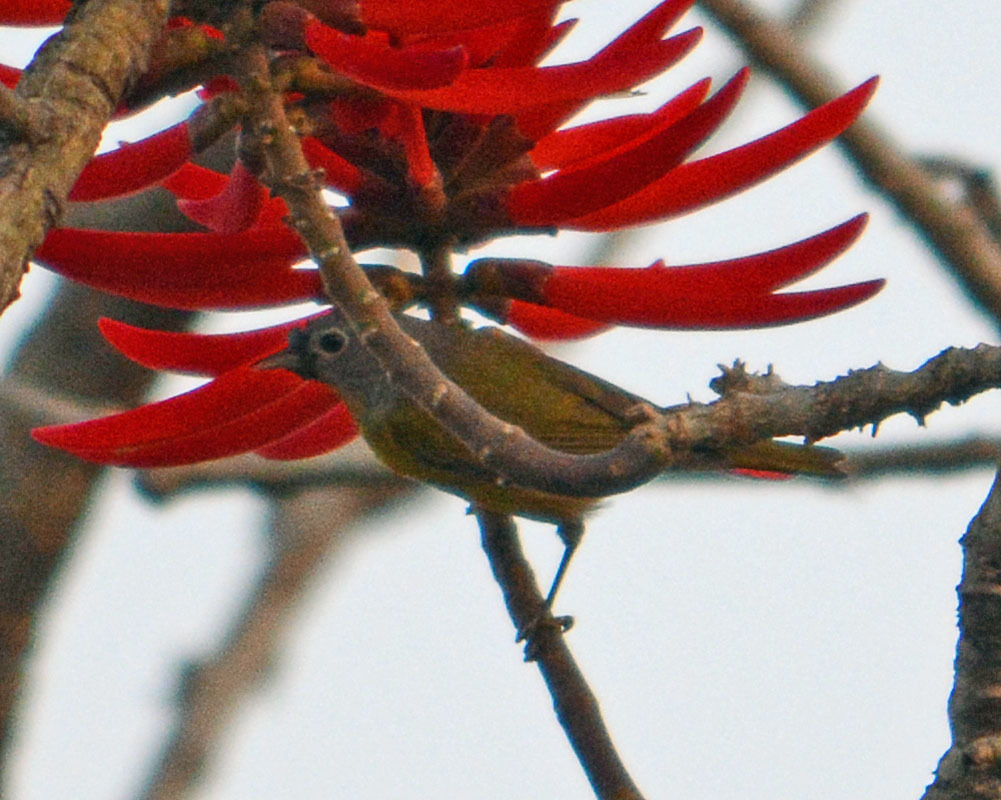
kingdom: Animalia
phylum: Chordata
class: Aves
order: Passeriformes
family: Parulidae
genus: Leiothlypis
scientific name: Leiothlypis ruficapilla
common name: Nashville warbler
